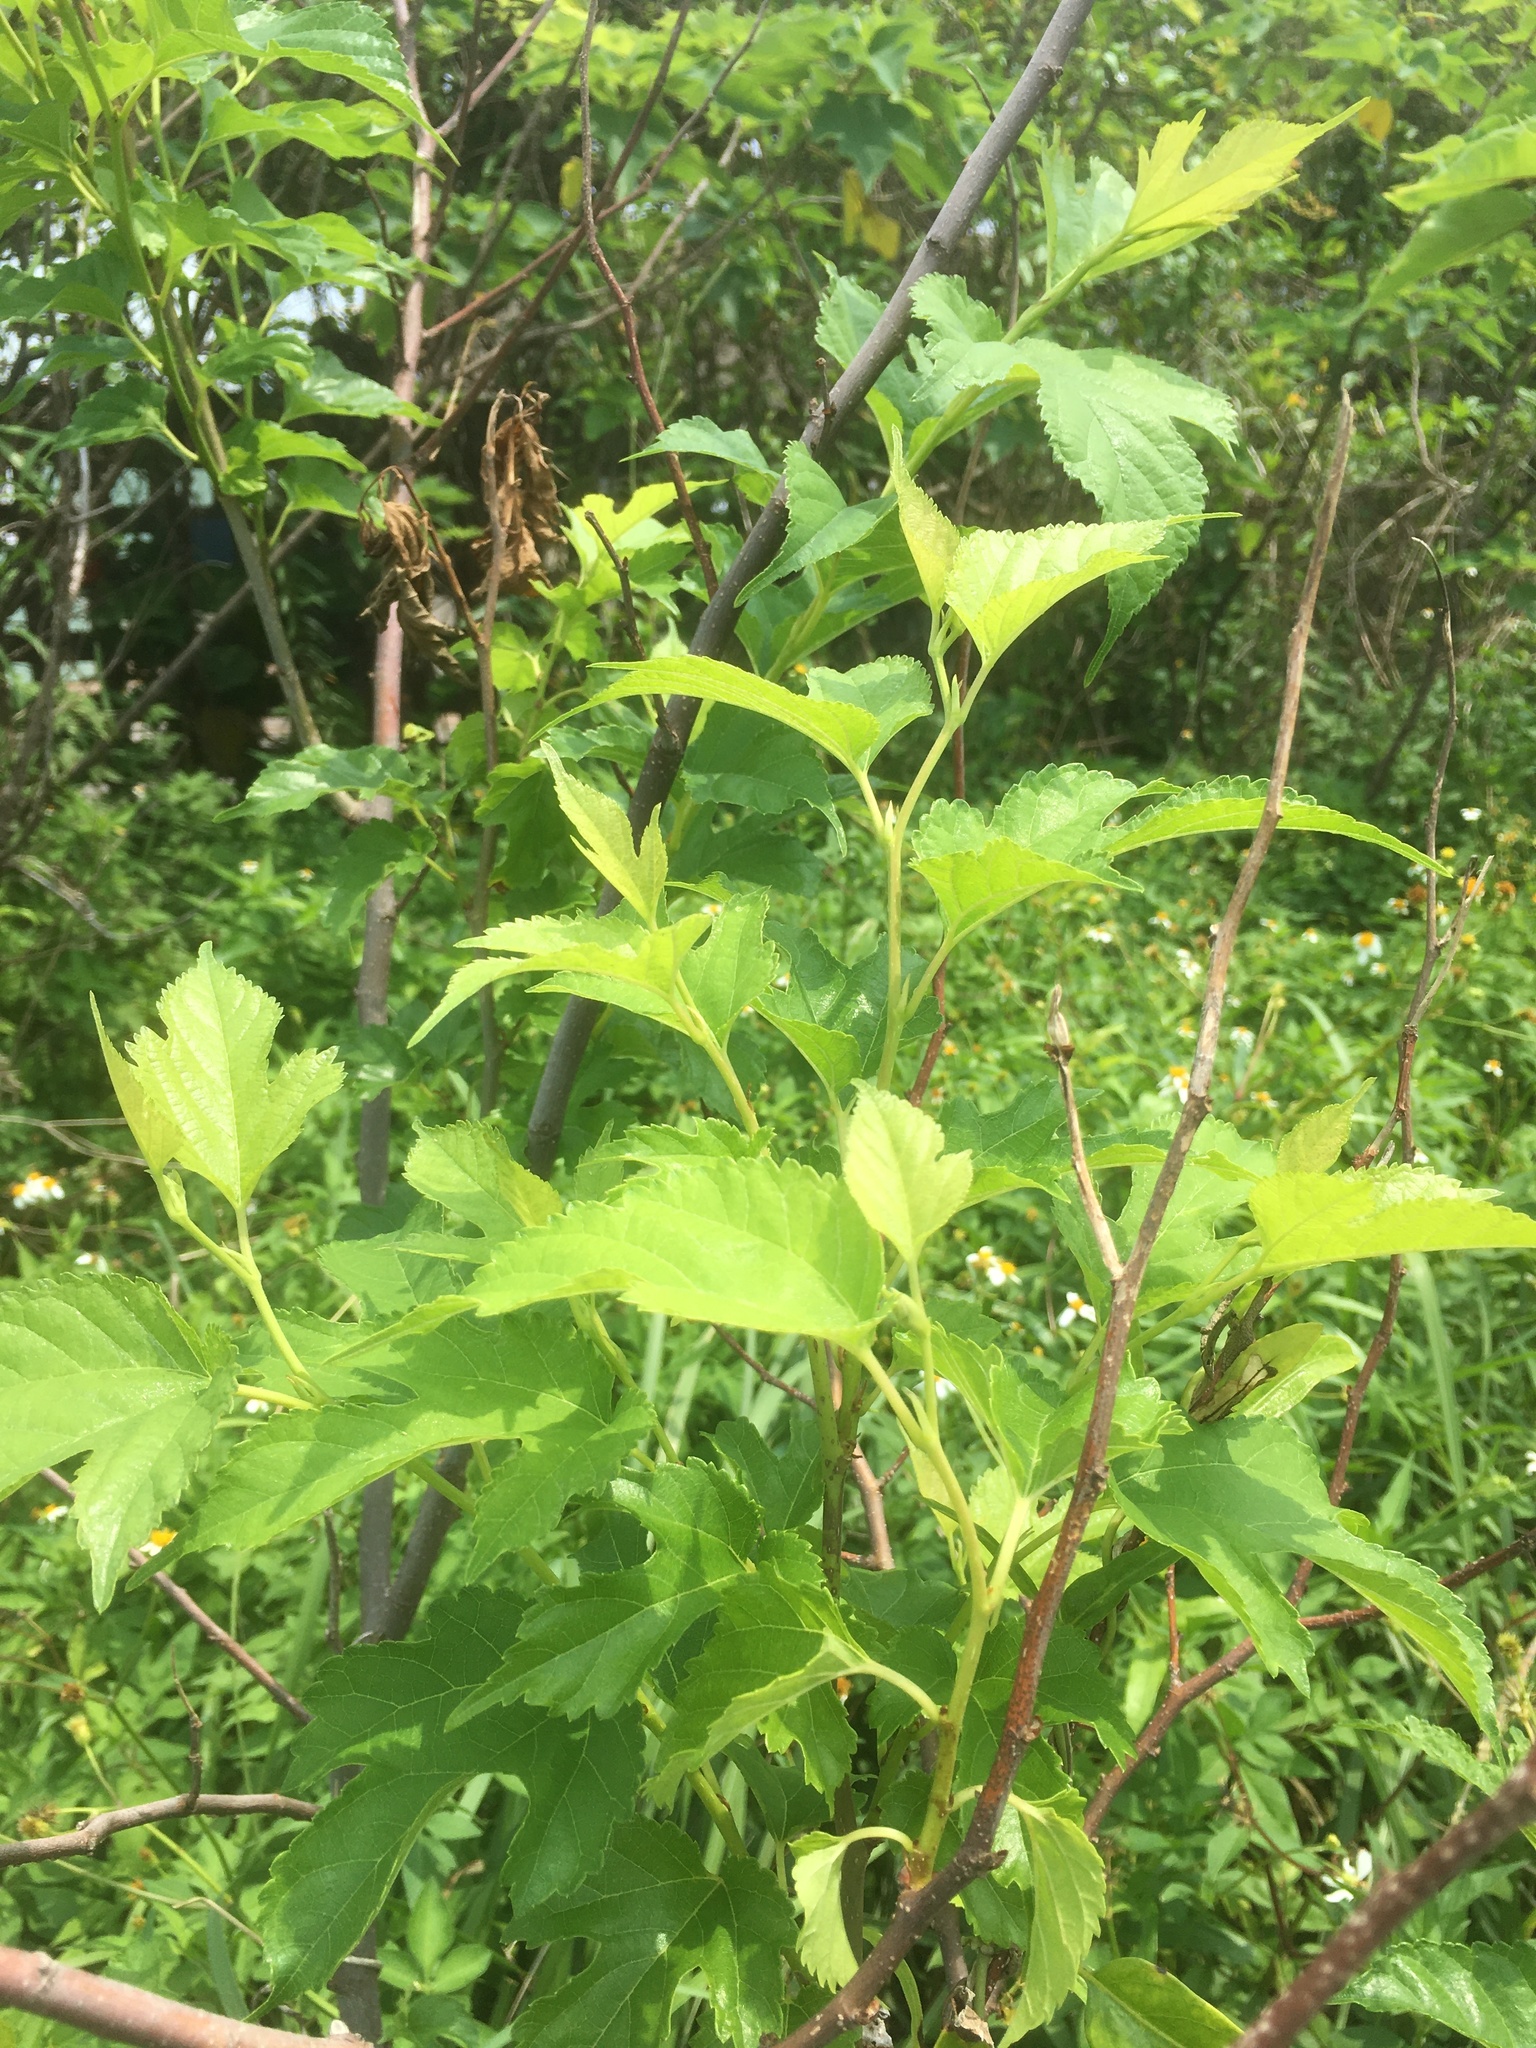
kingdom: Plantae
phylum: Tracheophyta
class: Magnoliopsida
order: Rosales
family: Moraceae
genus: Morus
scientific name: Morus indica
